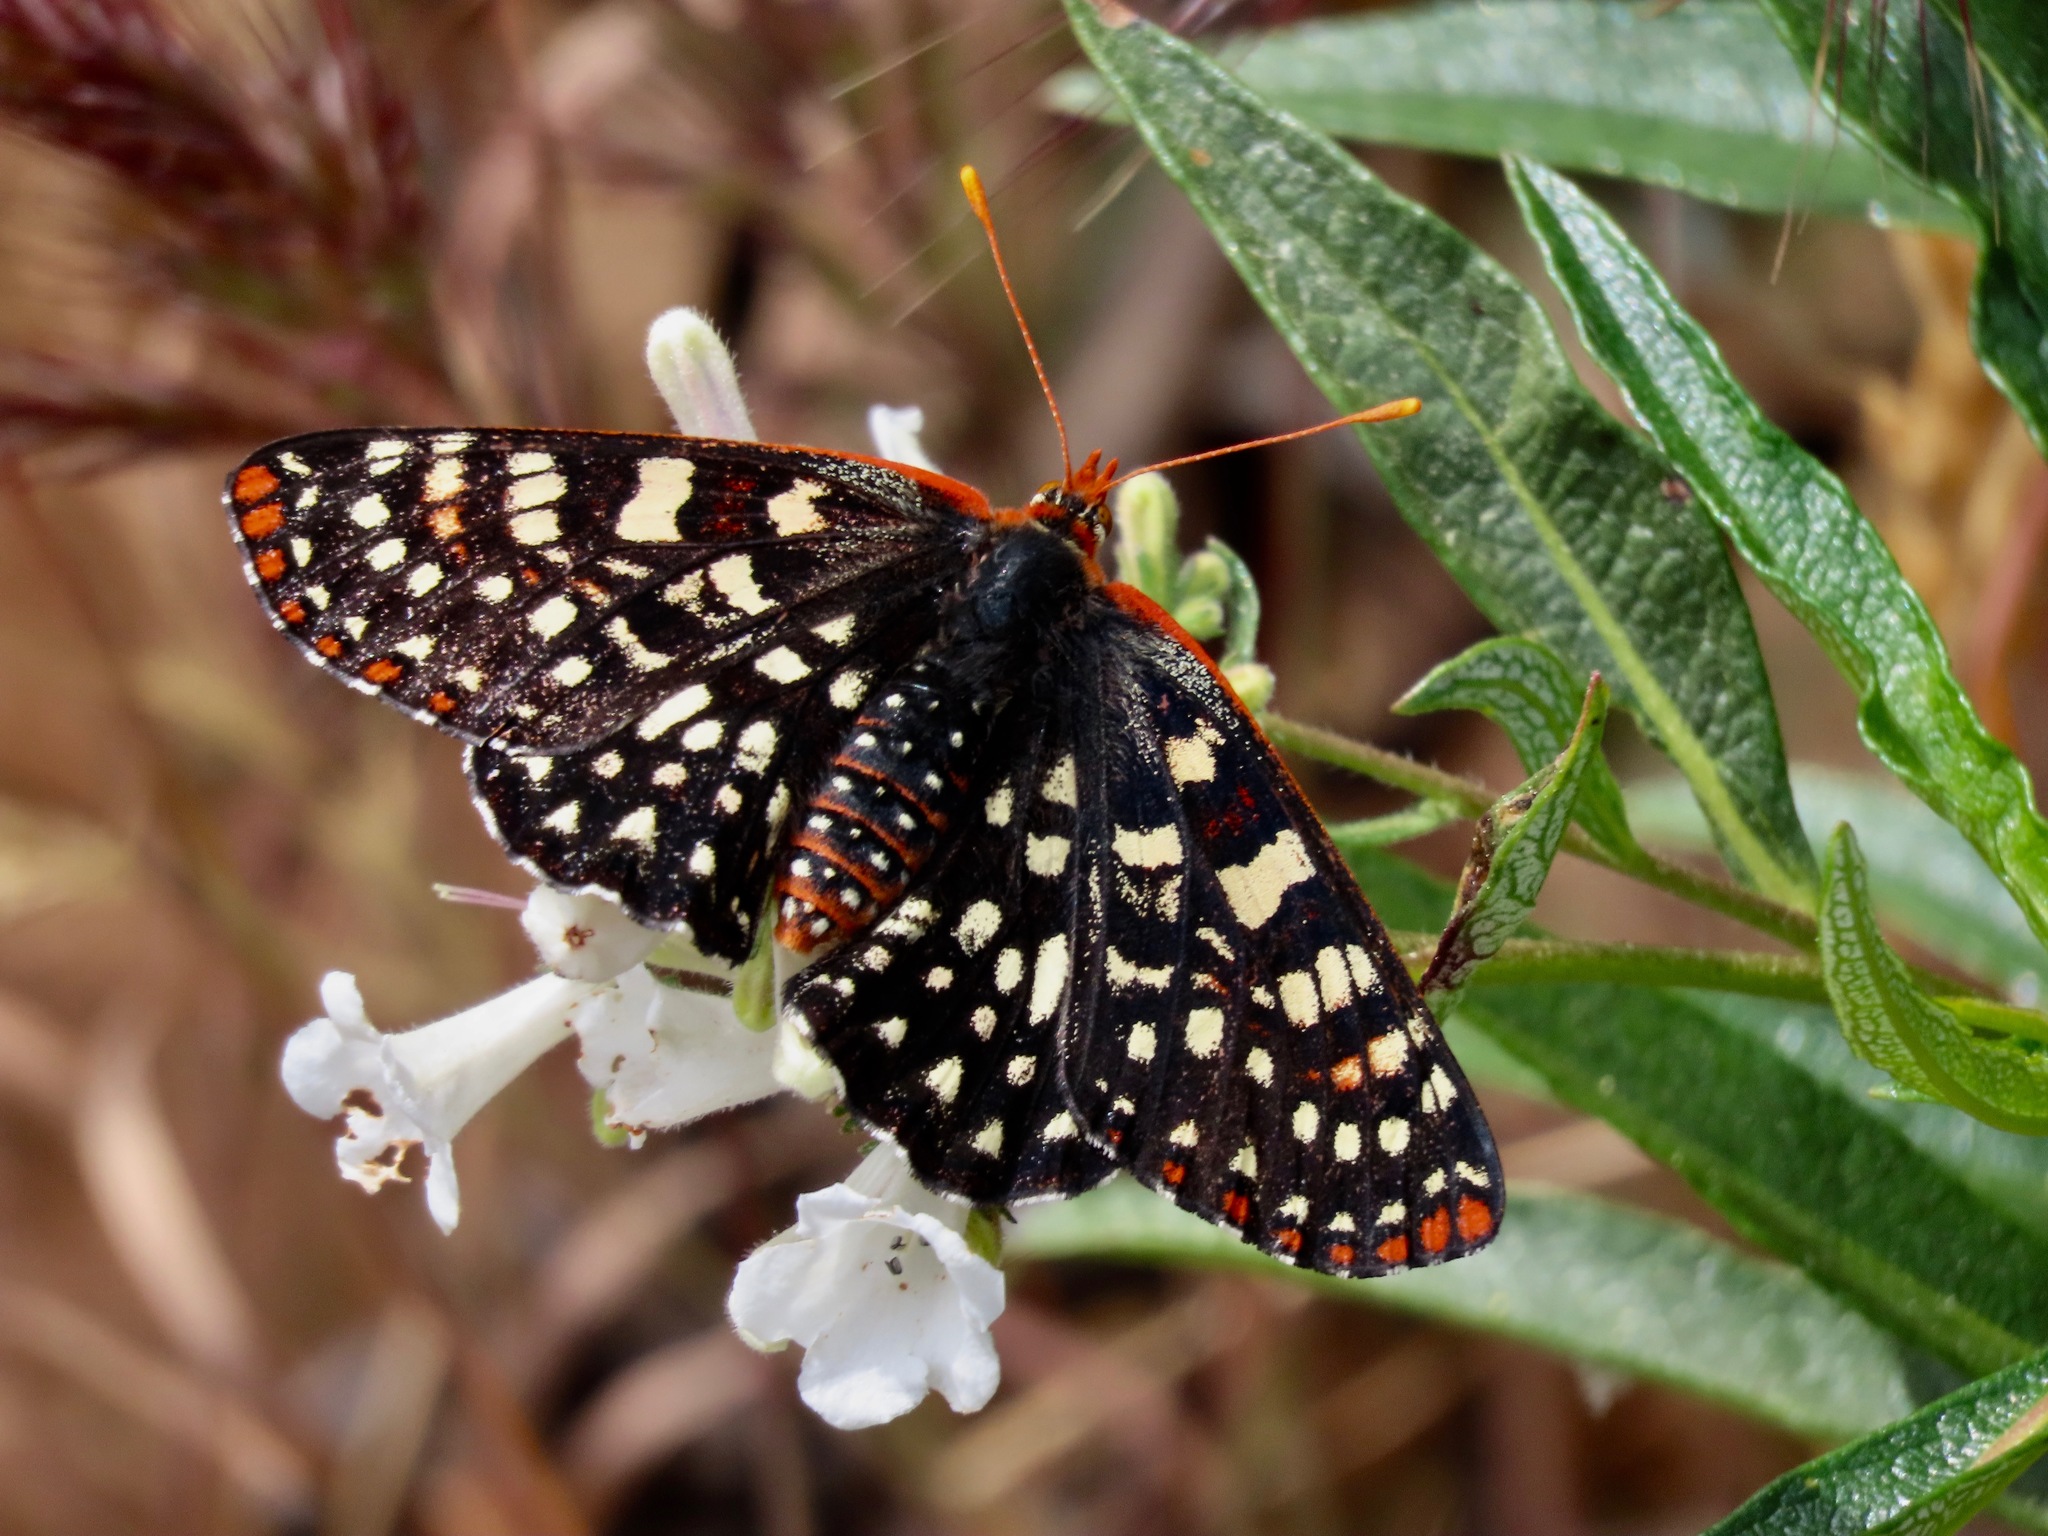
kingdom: Animalia
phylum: Arthropoda
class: Insecta
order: Lepidoptera
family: Nymphalidae
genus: Occidryas
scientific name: Occidryas chalcedona
